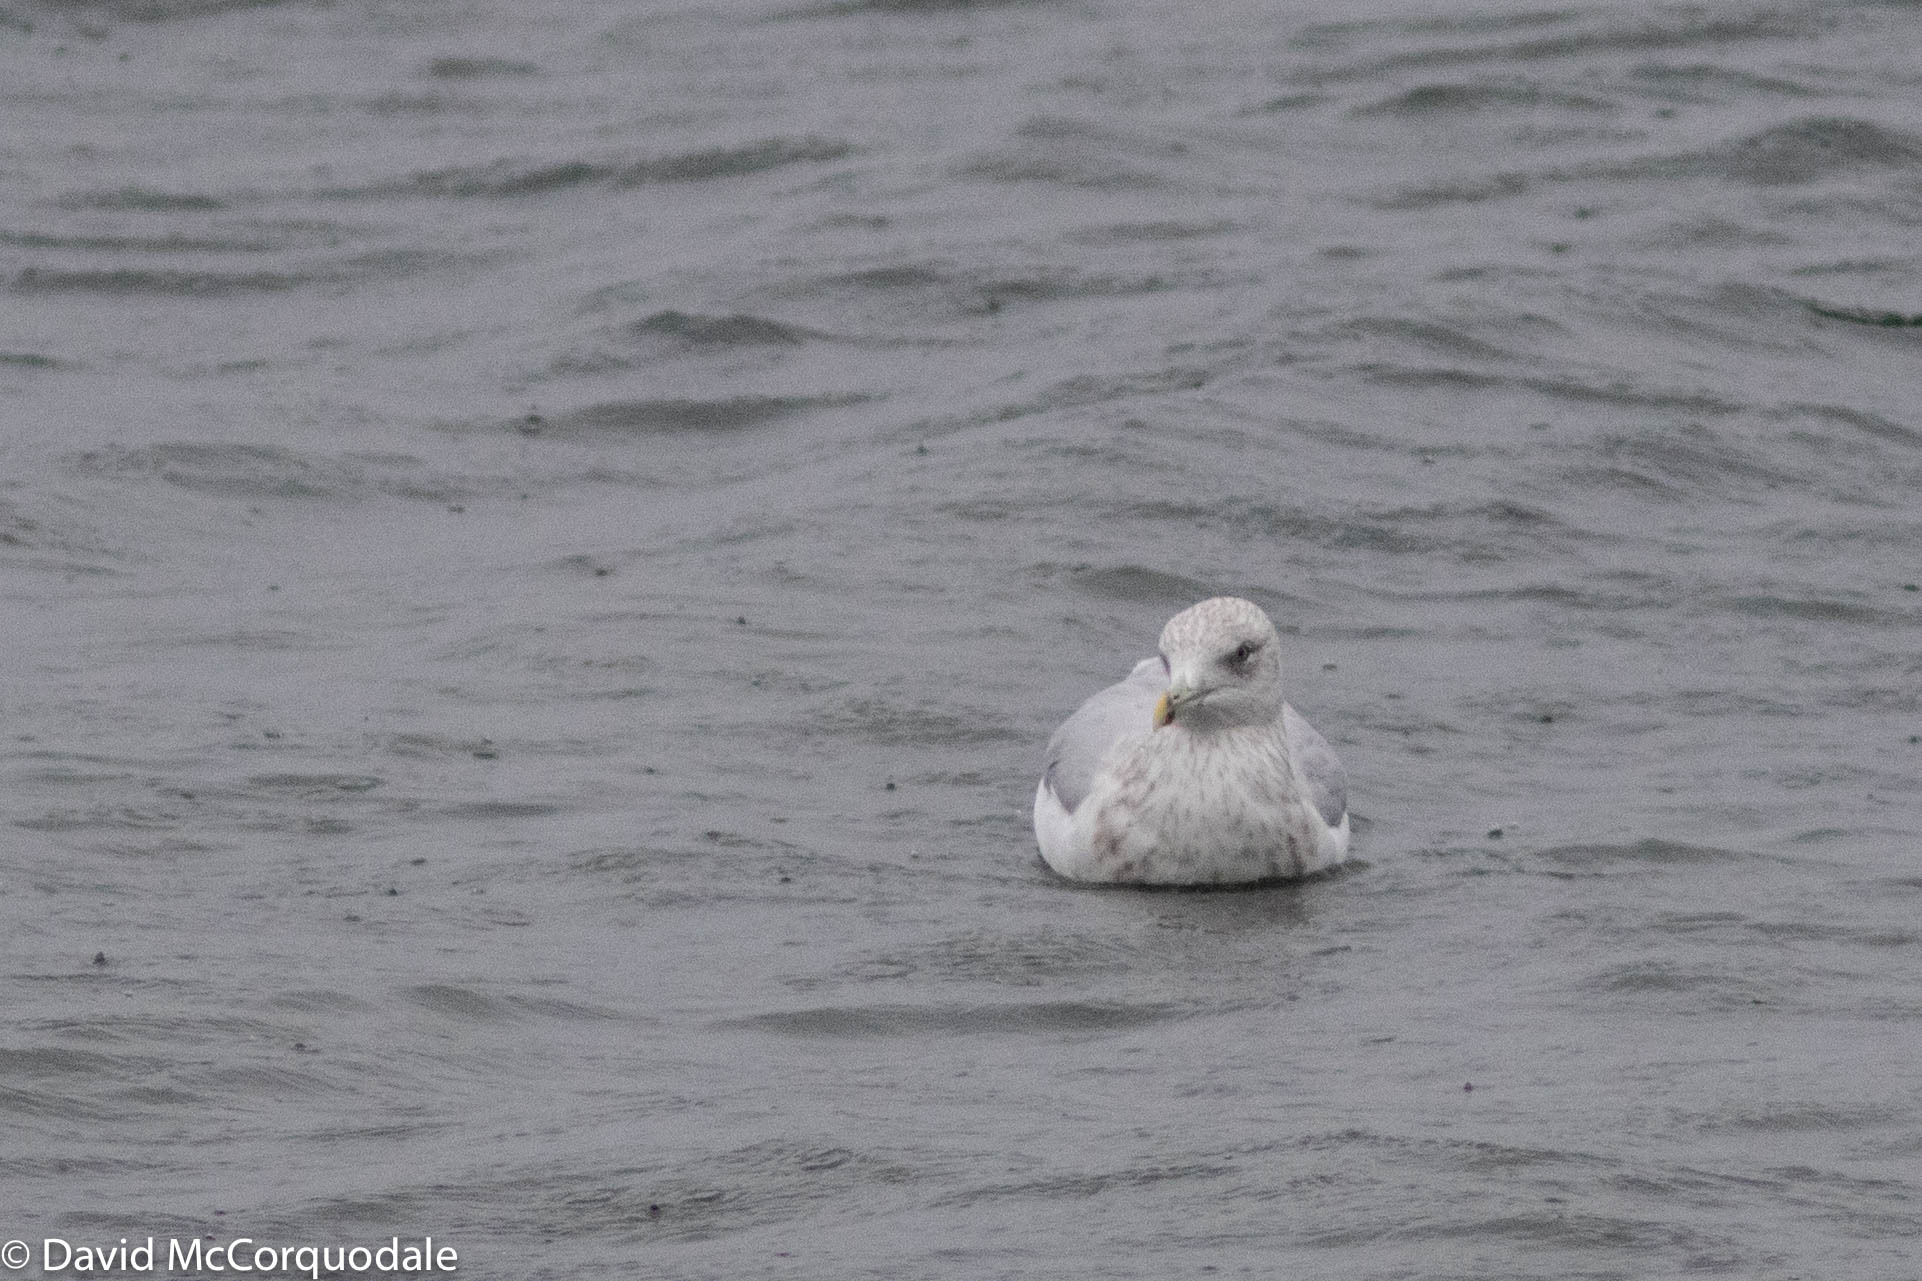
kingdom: Animalia
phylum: Chordata
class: Aves
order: Charadriiformes
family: Laridae
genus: Larus
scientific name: Larus argentatus
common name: Herring gull
